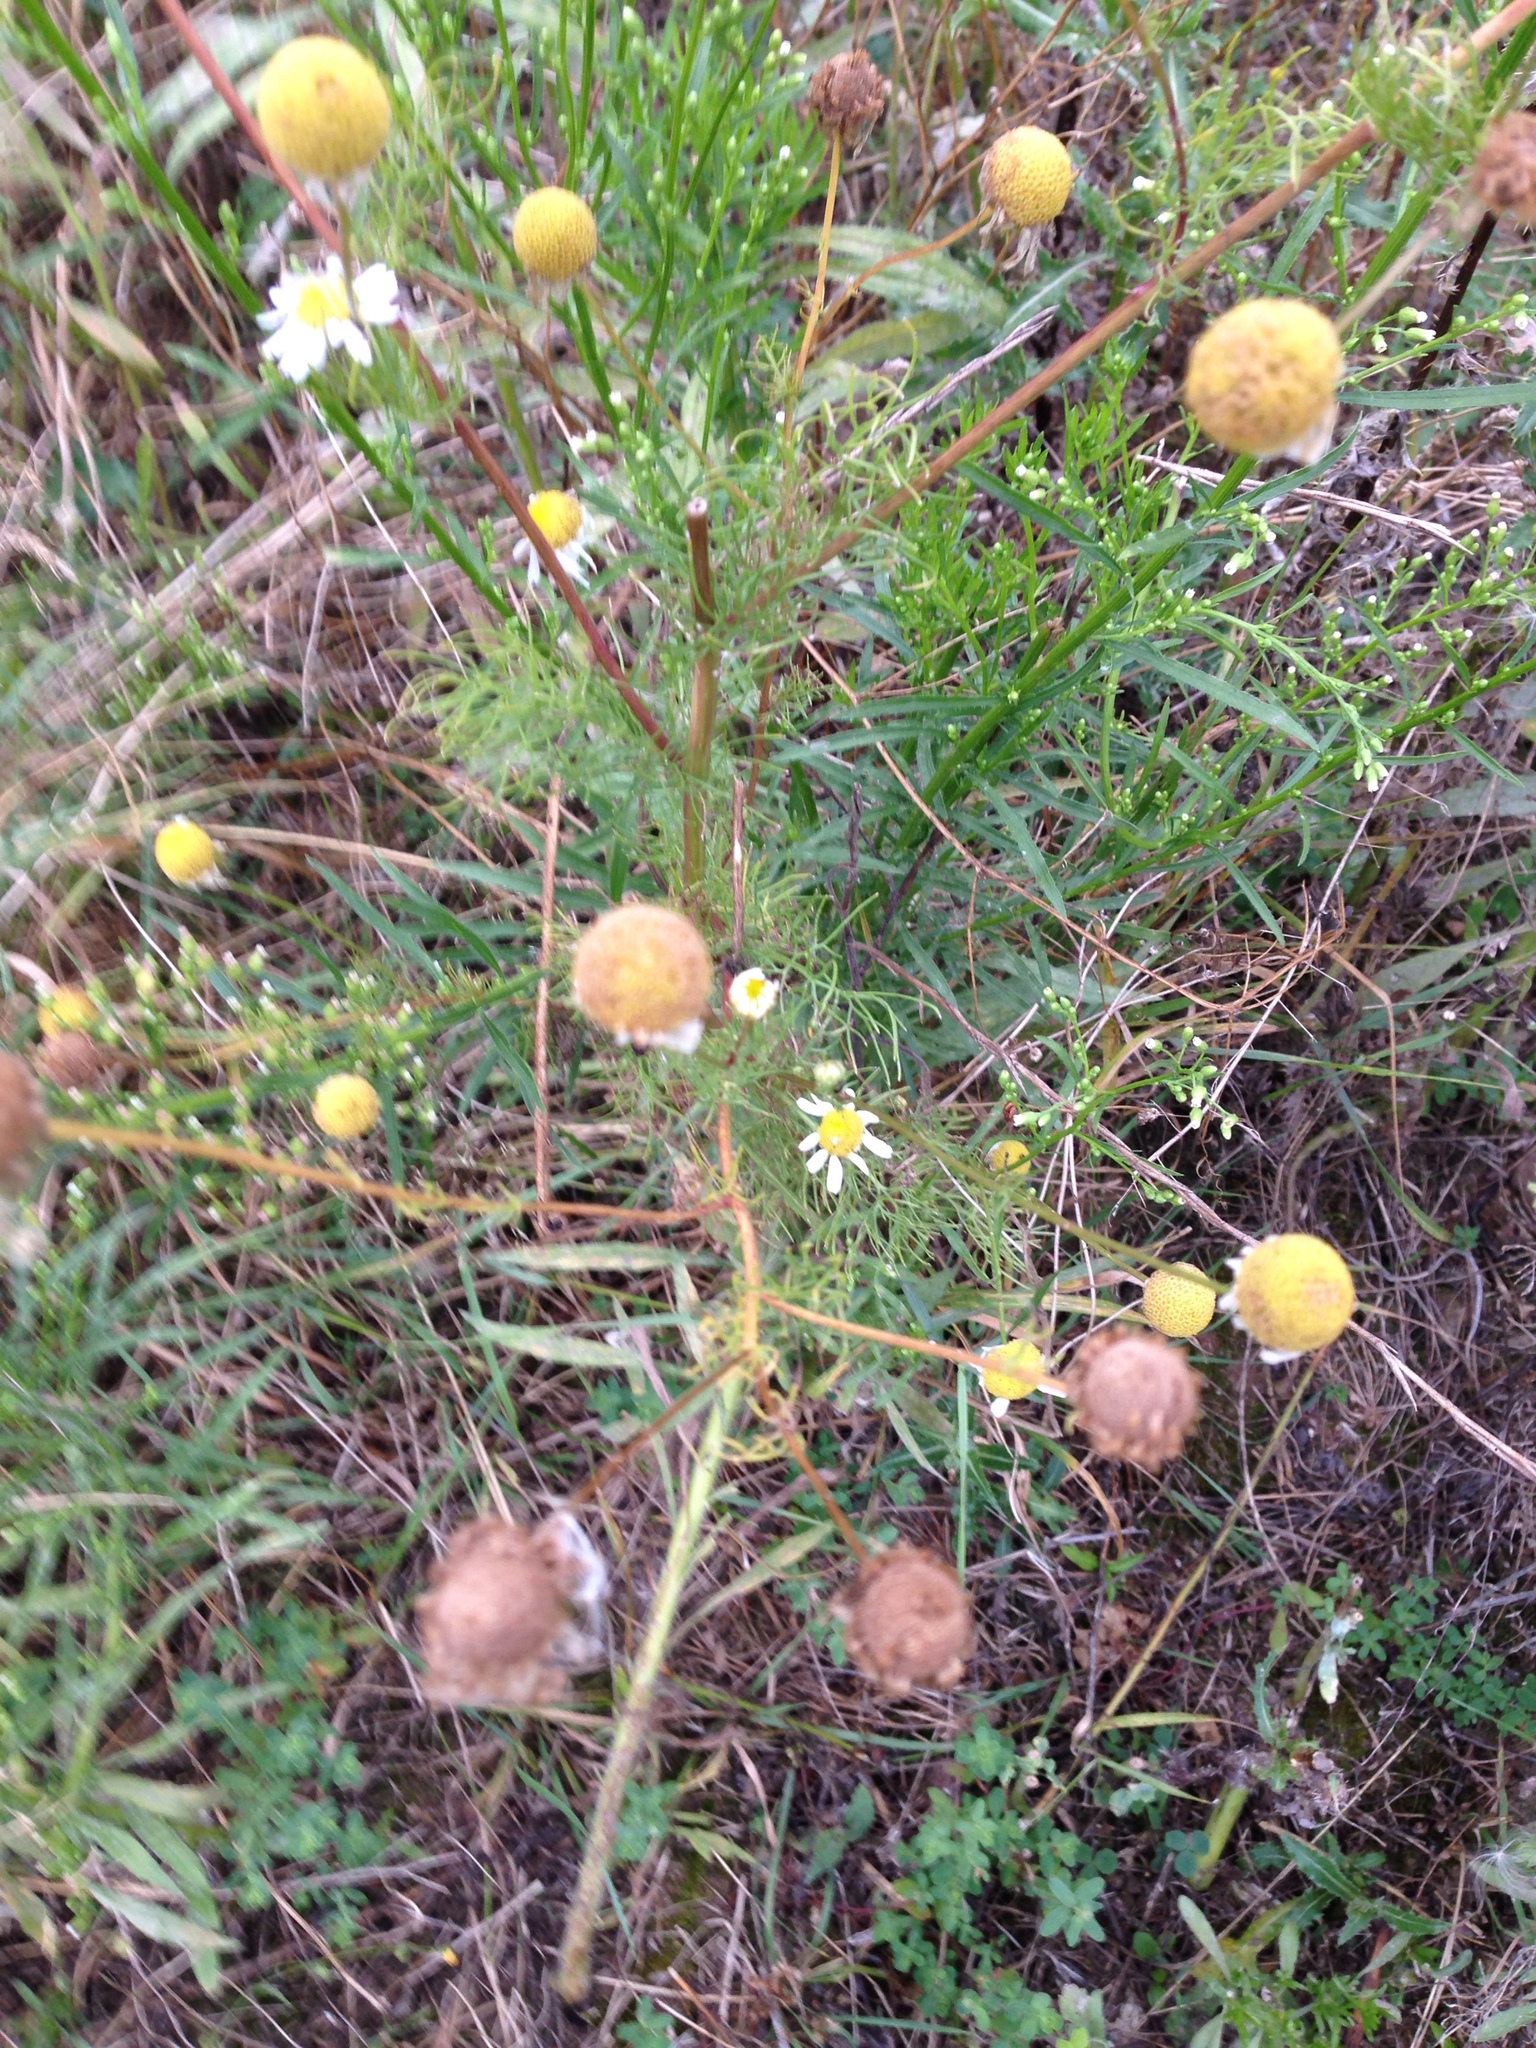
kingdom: Plantae
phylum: Tracheophyta
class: Magnoliopsida
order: Asterales
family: Asteraceae
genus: Matricaria
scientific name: Matricaria chamomilla
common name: Scented mayweed
